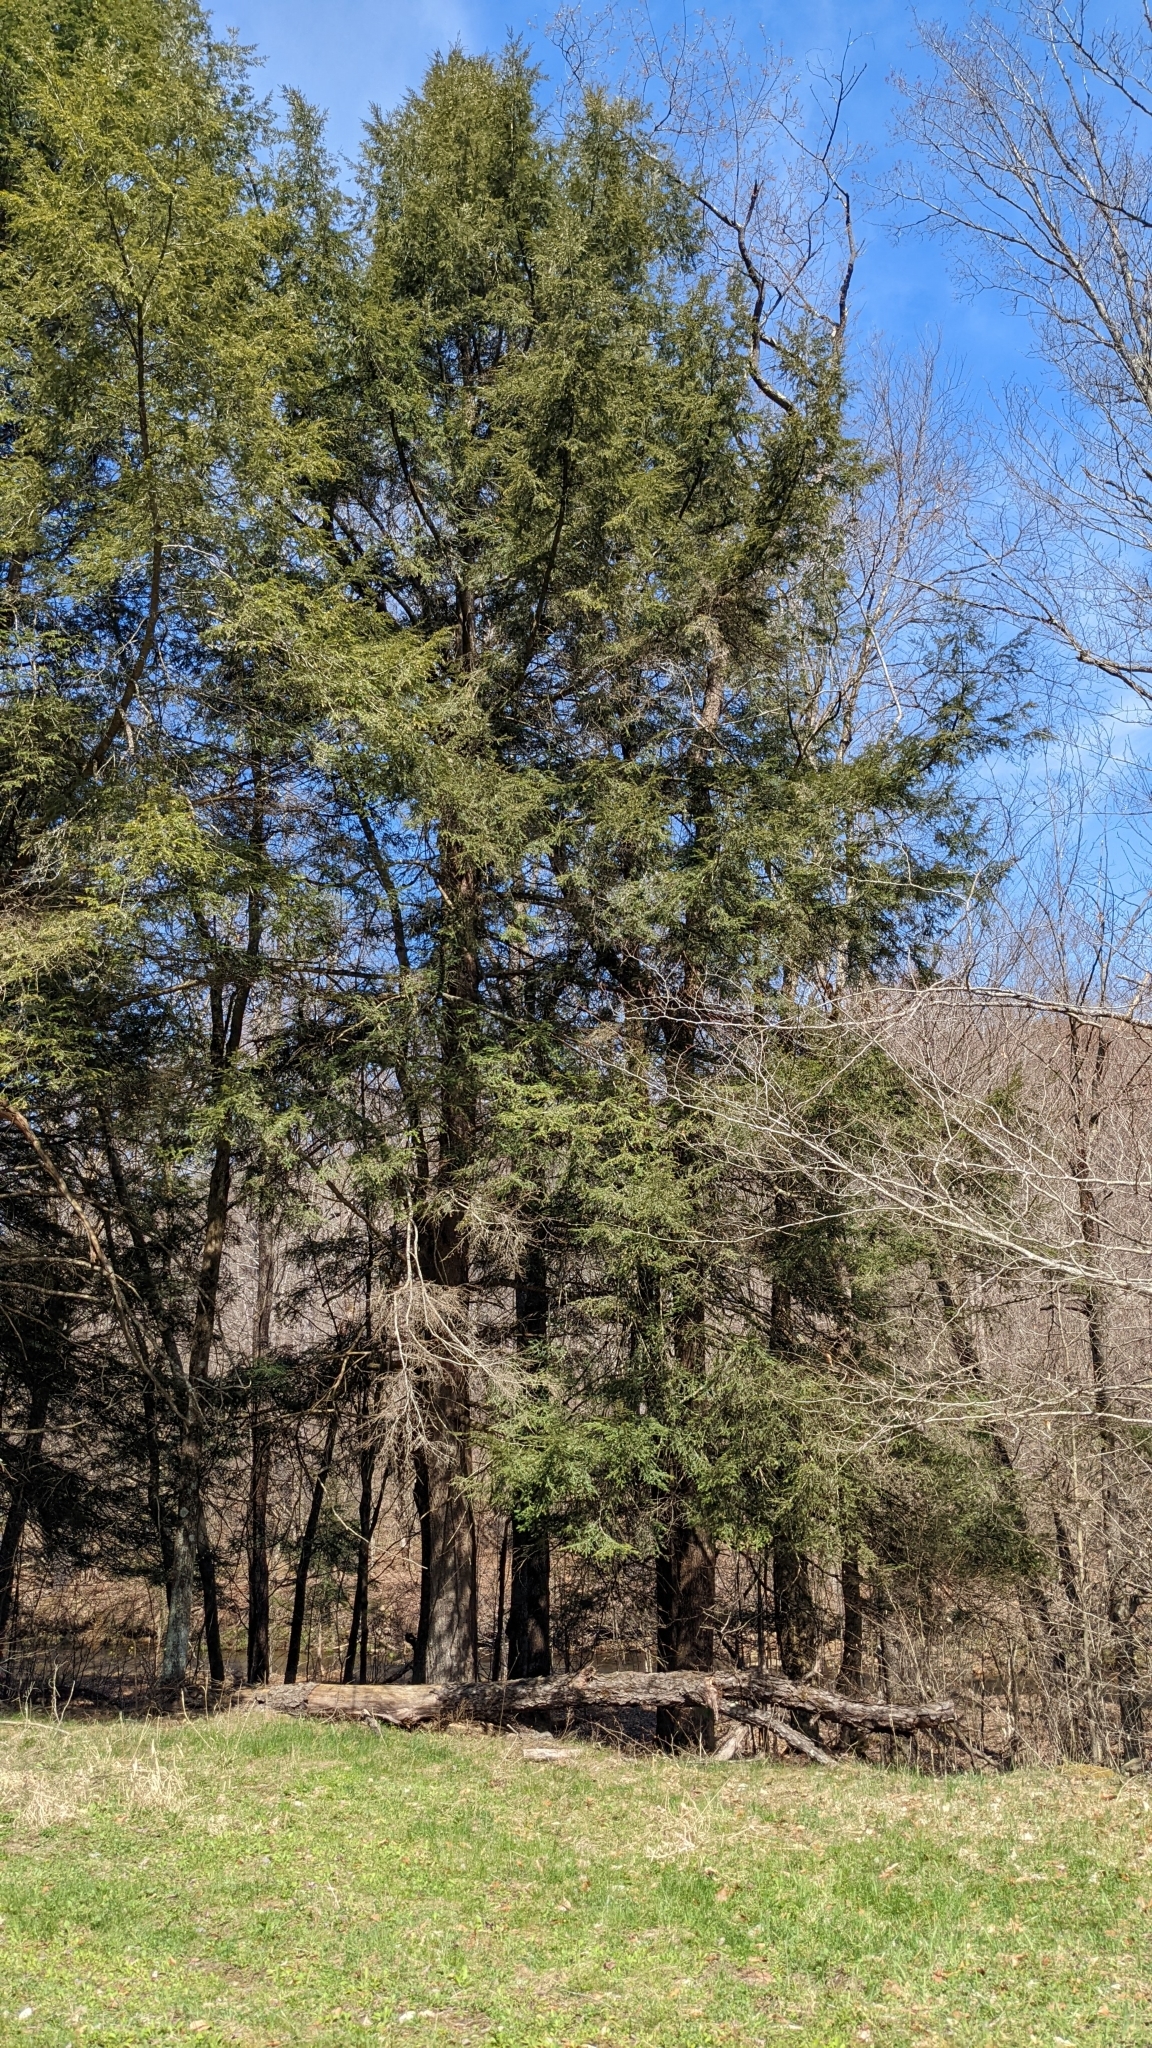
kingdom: Plantae
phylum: Tracheophyta
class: Pinopsida
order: Pinales
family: Pinaceae
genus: Tsuga
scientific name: Tsuga canadensis
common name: Eastern hemlock
